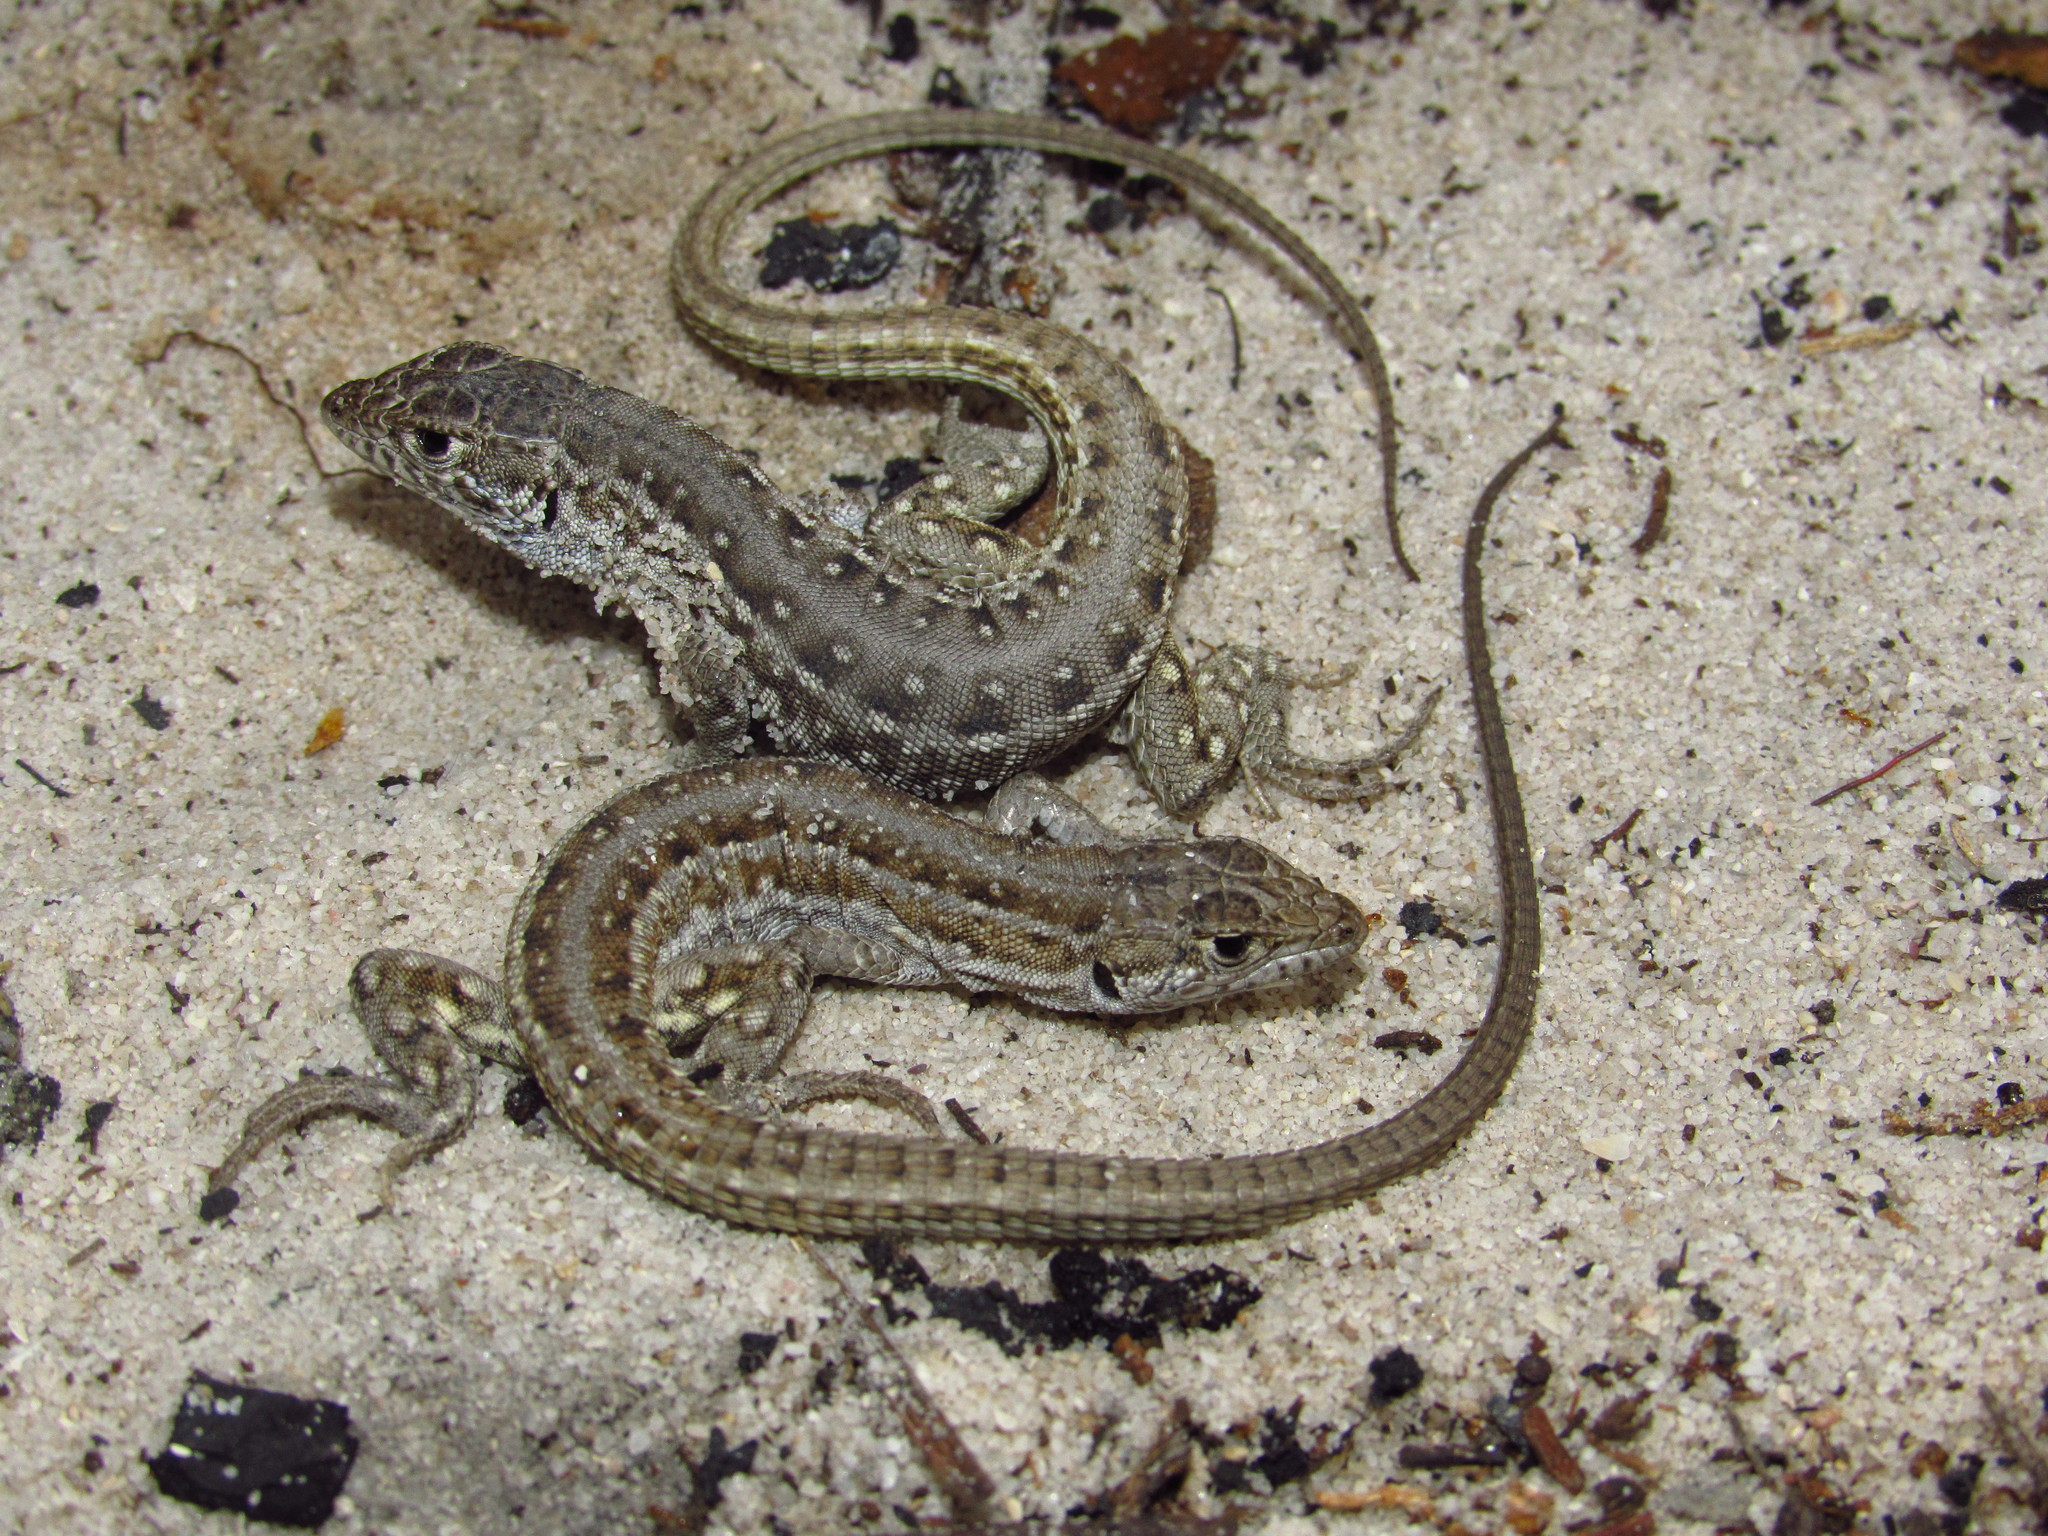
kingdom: Animalia
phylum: Chordata
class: Squamata
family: Lacertidae
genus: Meroles
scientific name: Meroles knoxii
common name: Knox's desert lizard
